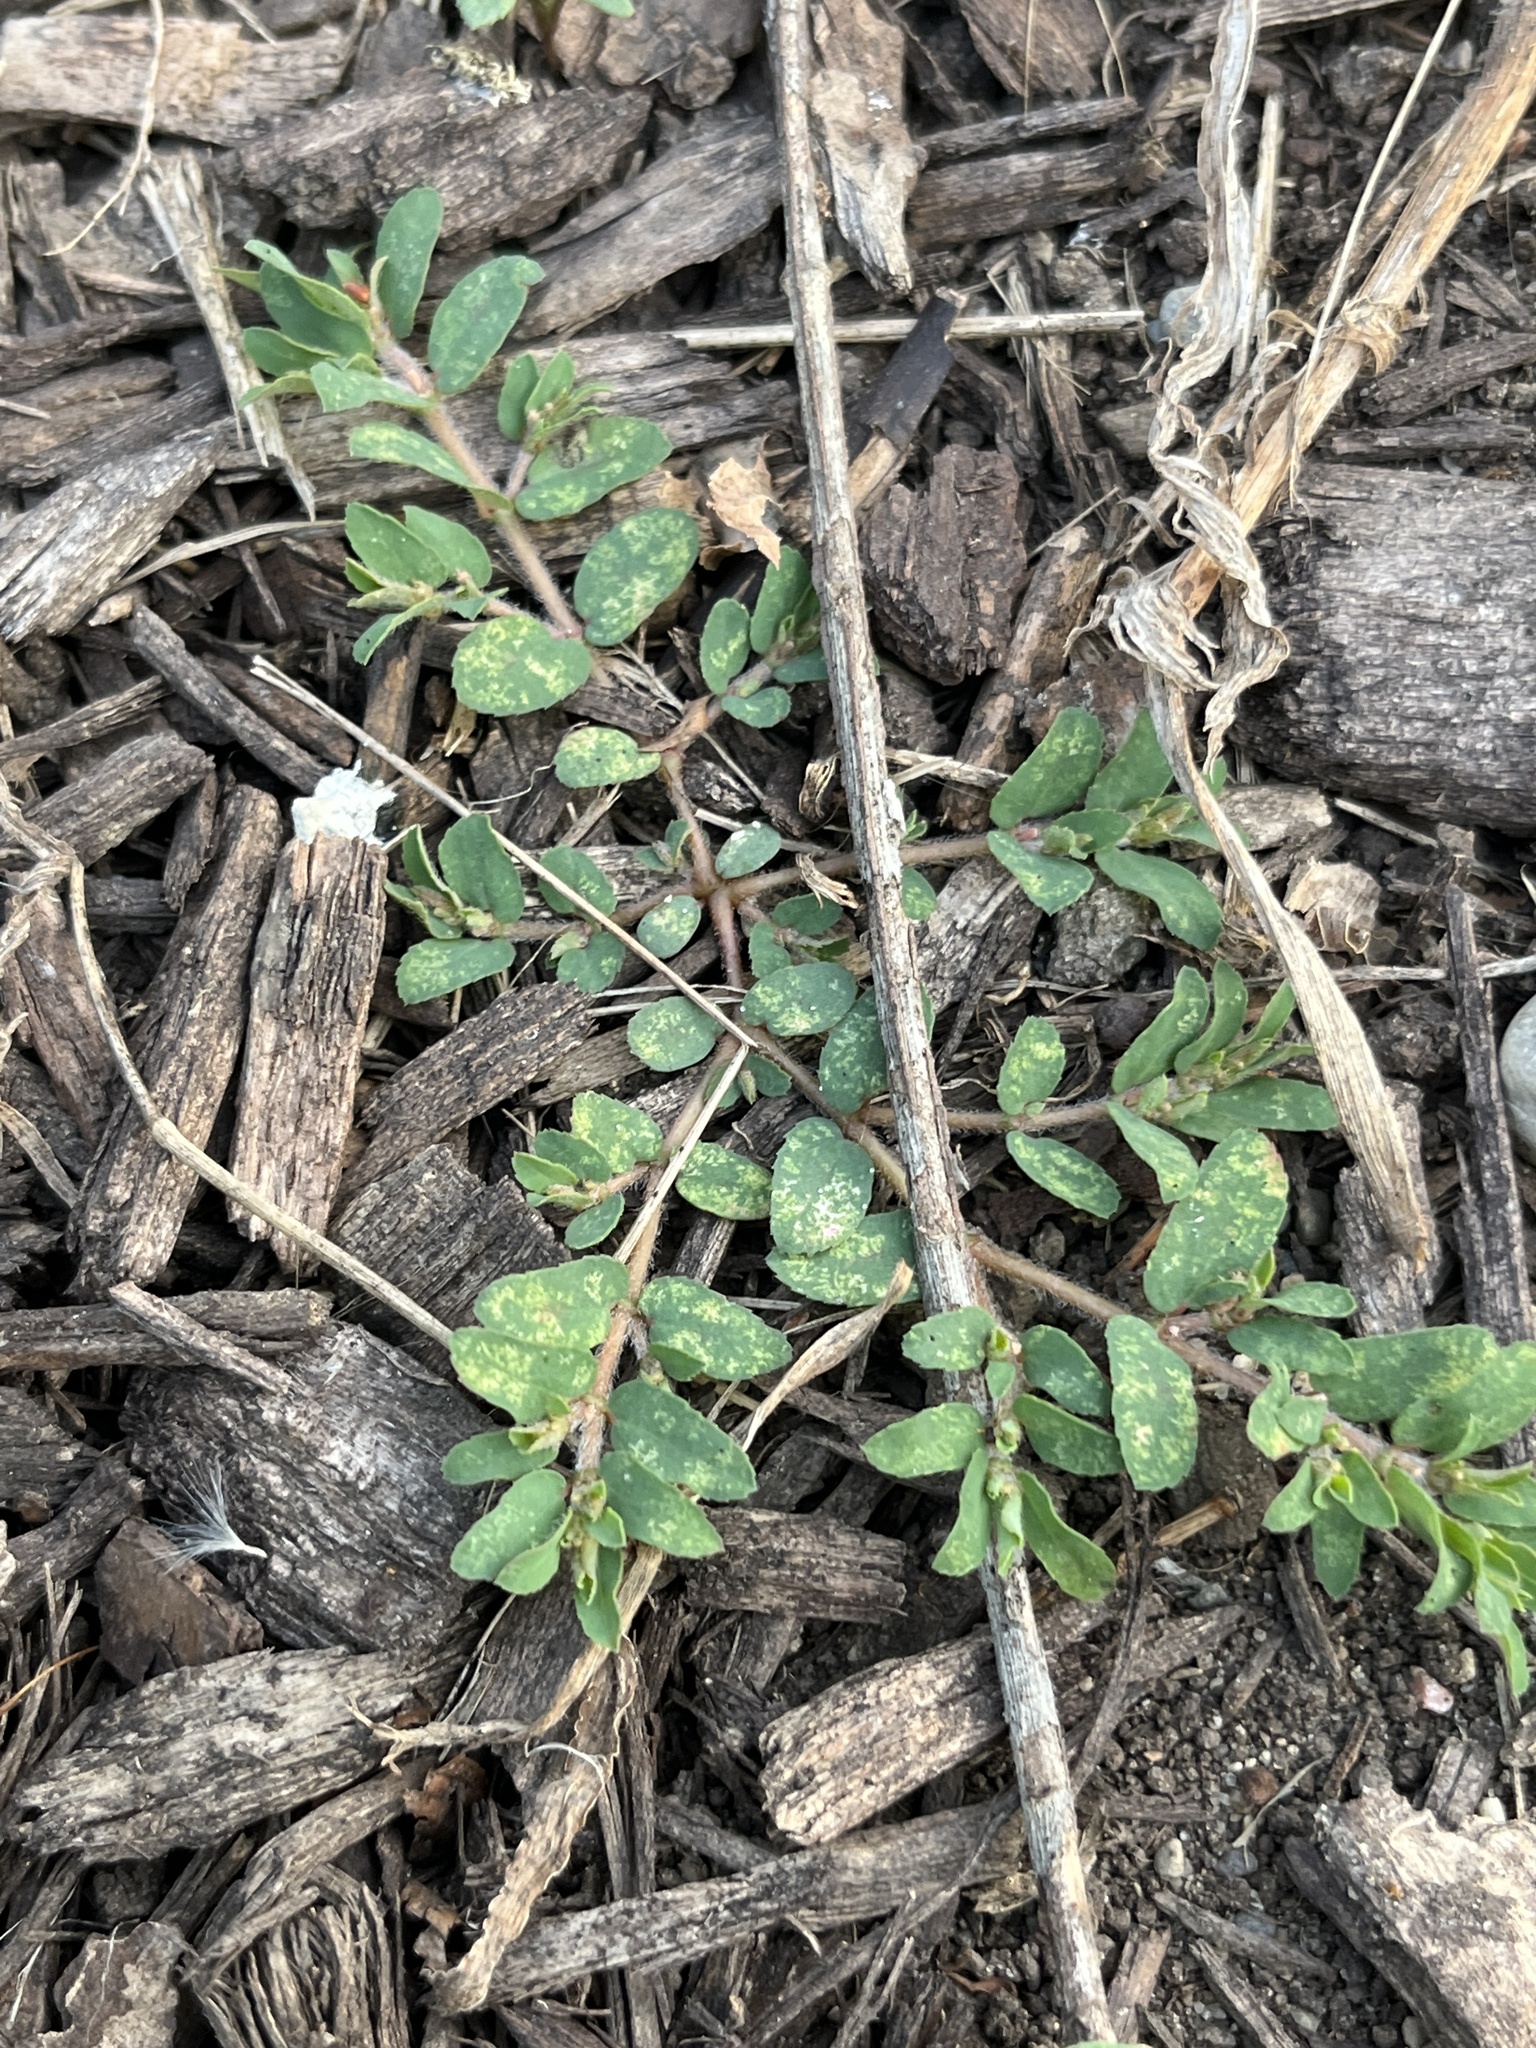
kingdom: Plantae
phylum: Tracheophyta
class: Magnoliopsida
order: Malpighiales
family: Euphorbiaceae
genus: Euphorbia
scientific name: Euphorbia maculata
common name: Spotted spurge
